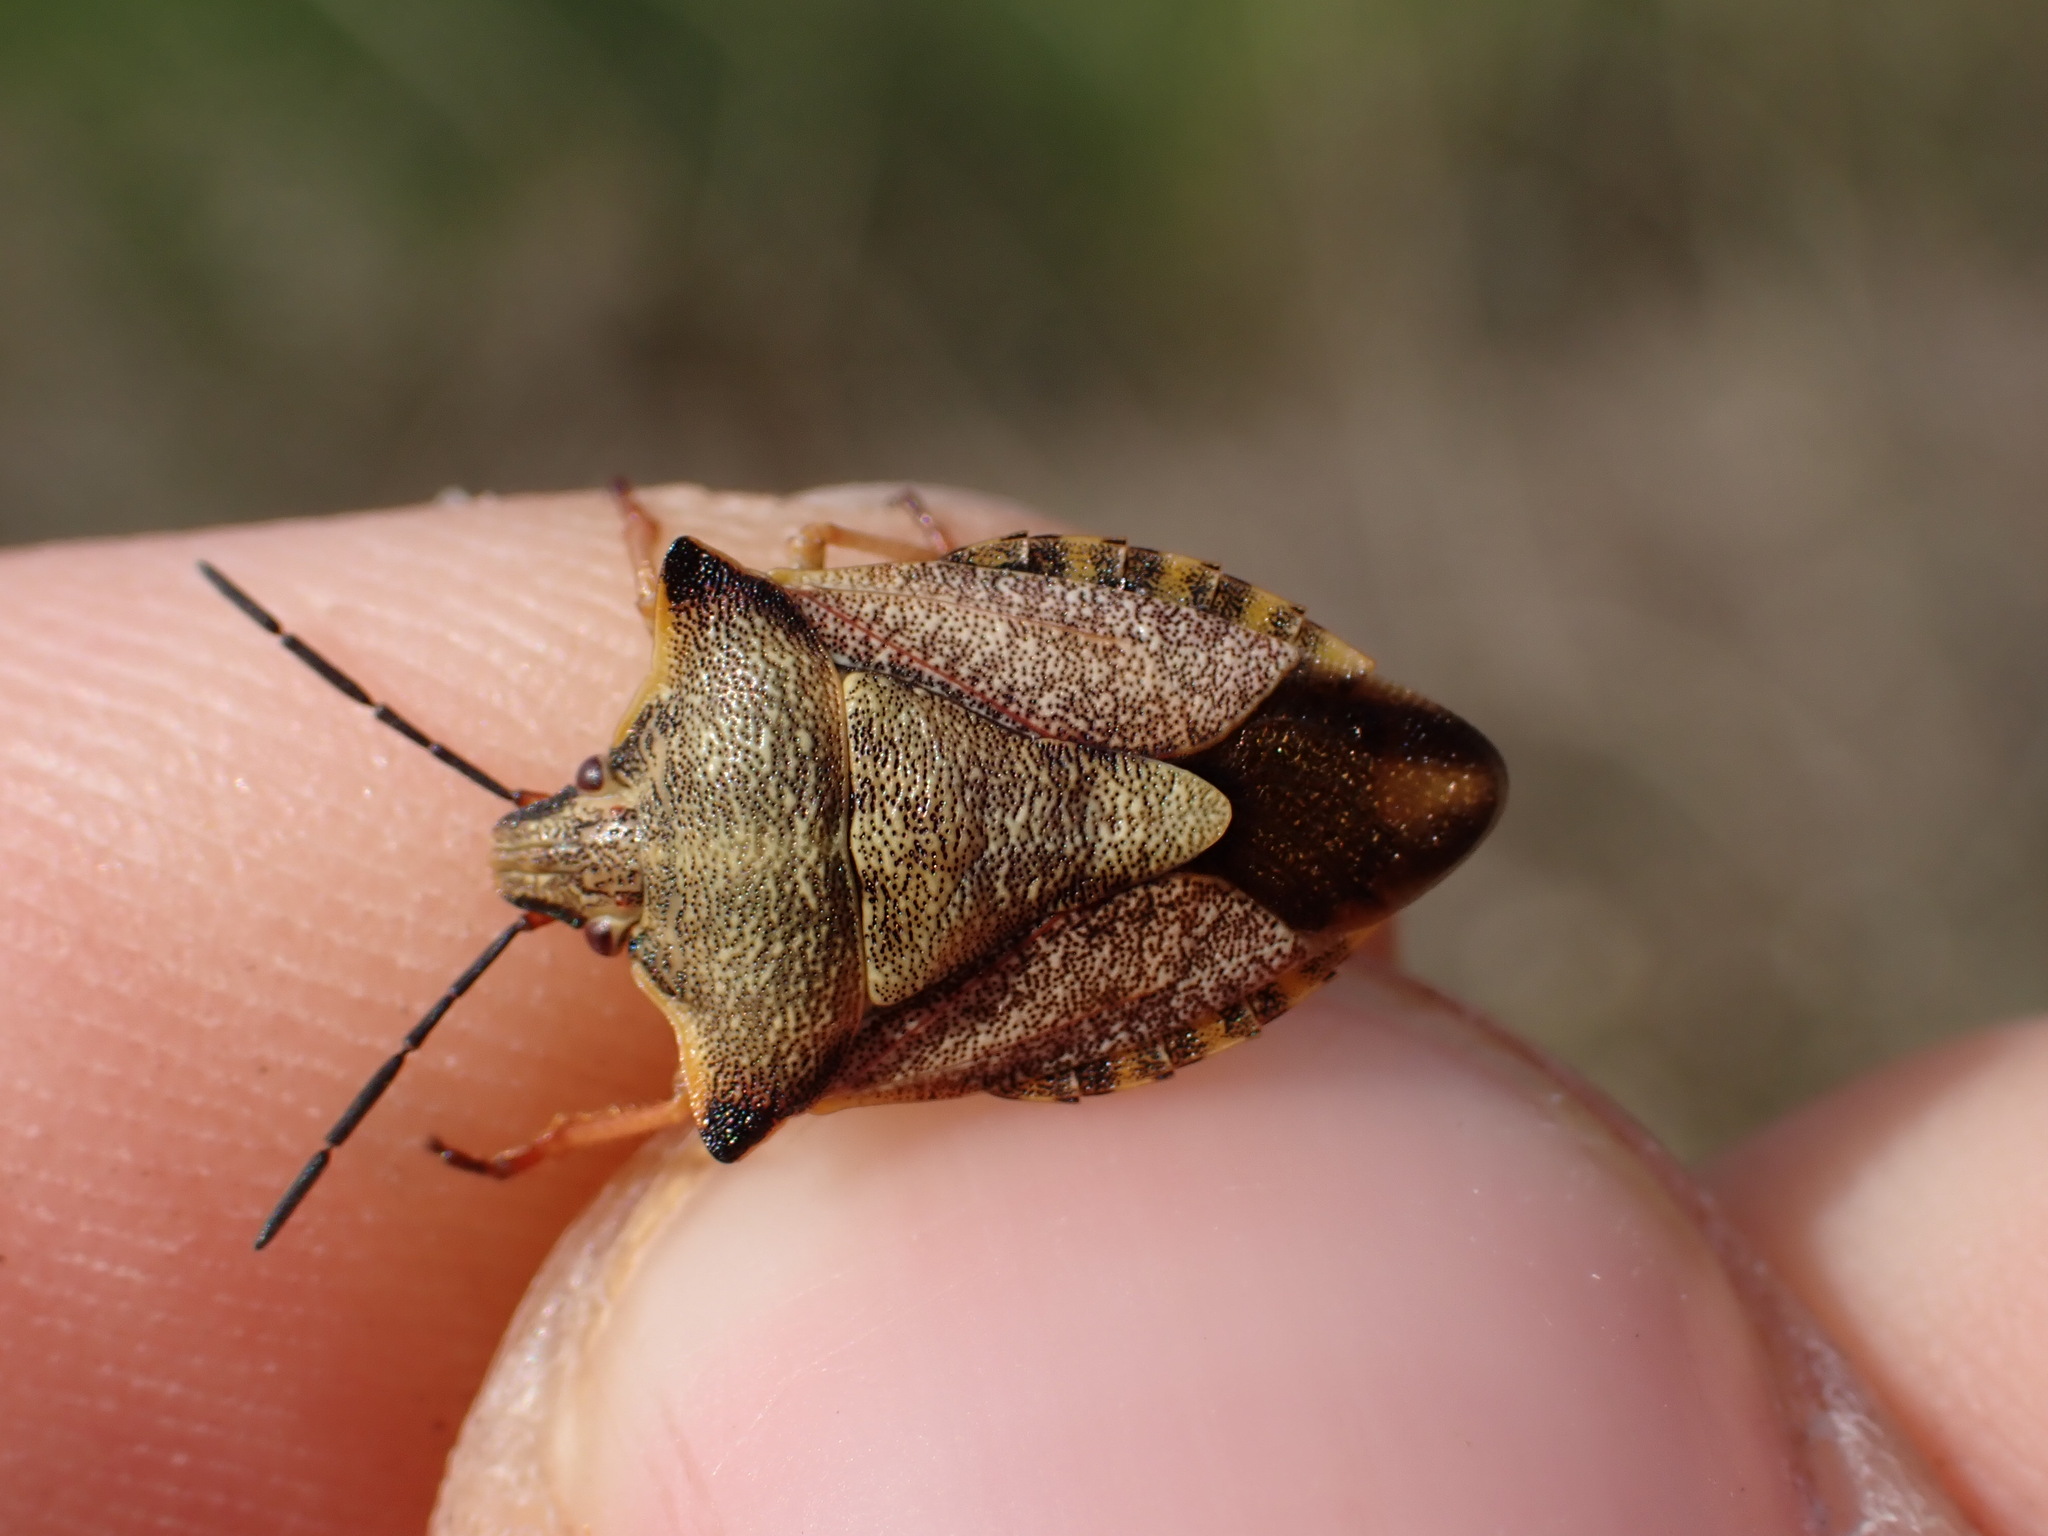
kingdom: Animalia
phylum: Arthropoda
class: Insecta
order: Hemiptera
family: Pentatomidae
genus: Carpocoris
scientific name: Carpocoris mediterraneus
